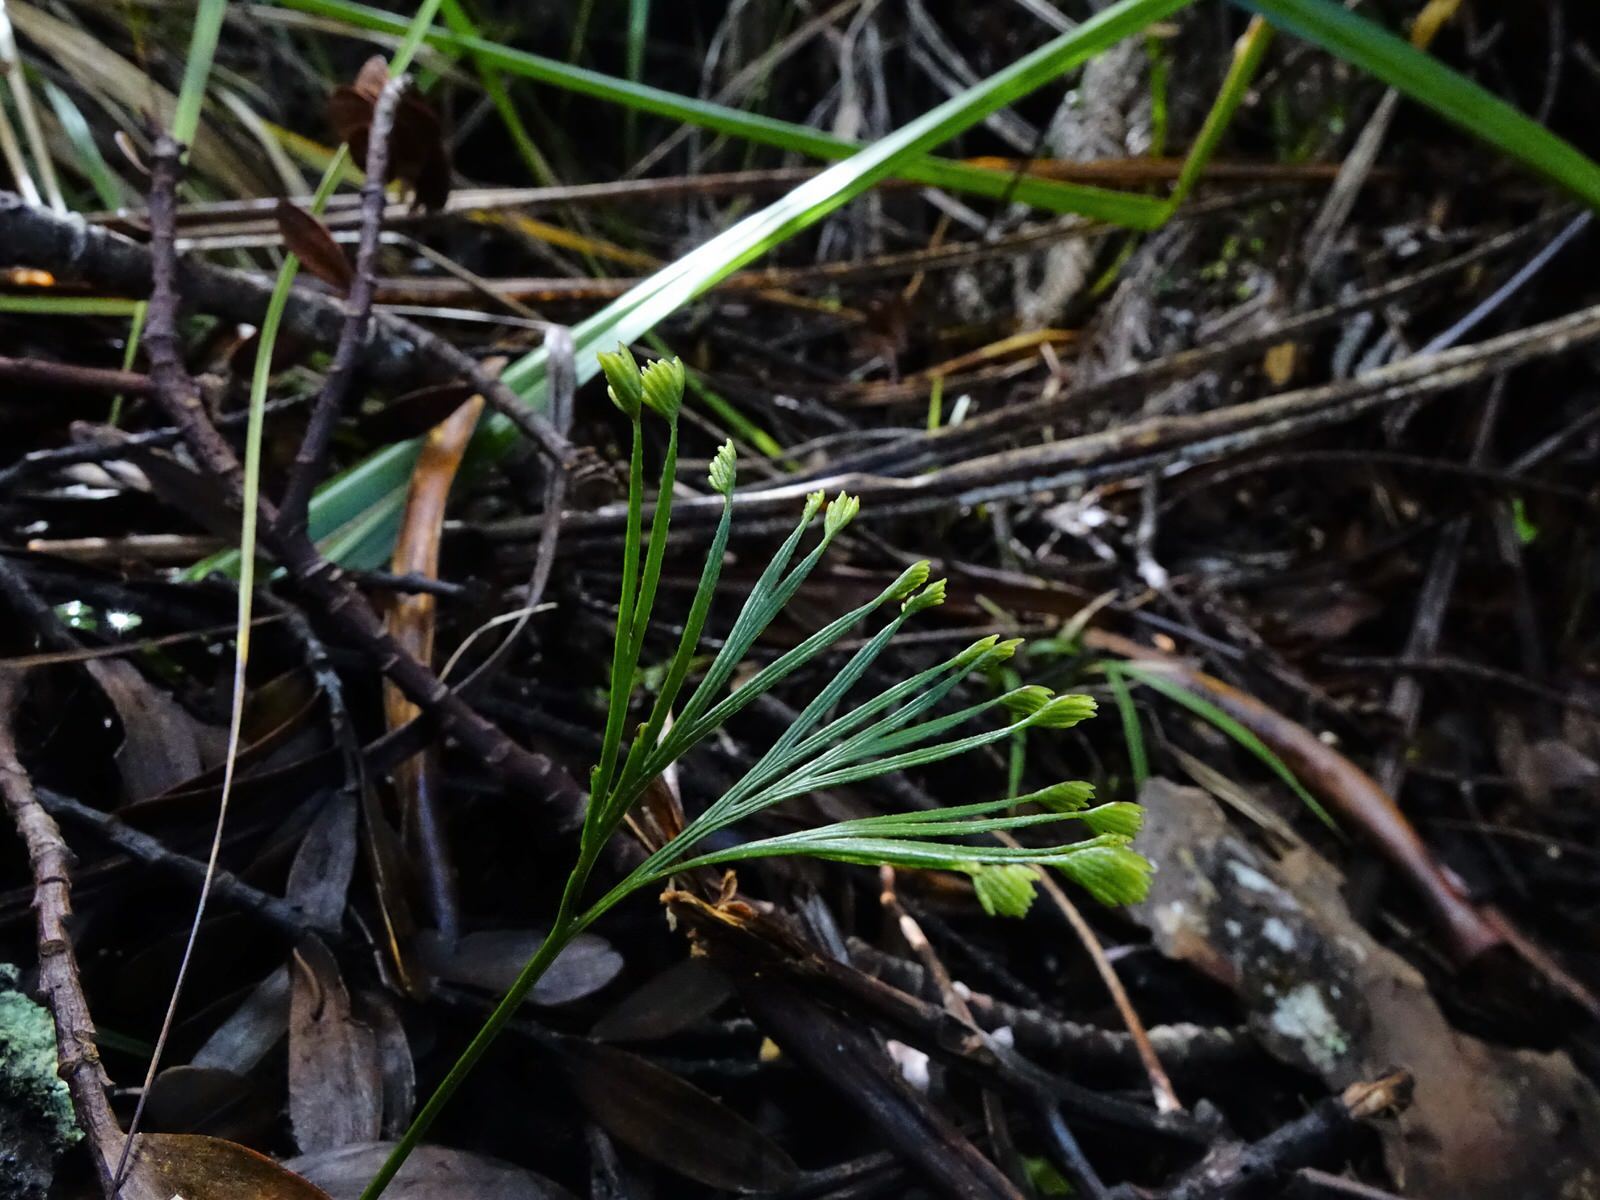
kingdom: Plantae
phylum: Tracheophyta
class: Polypodiopsida
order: Schizaeales
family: Schizaeaceae
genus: Schizaea
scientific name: Schizaea dichotoma
